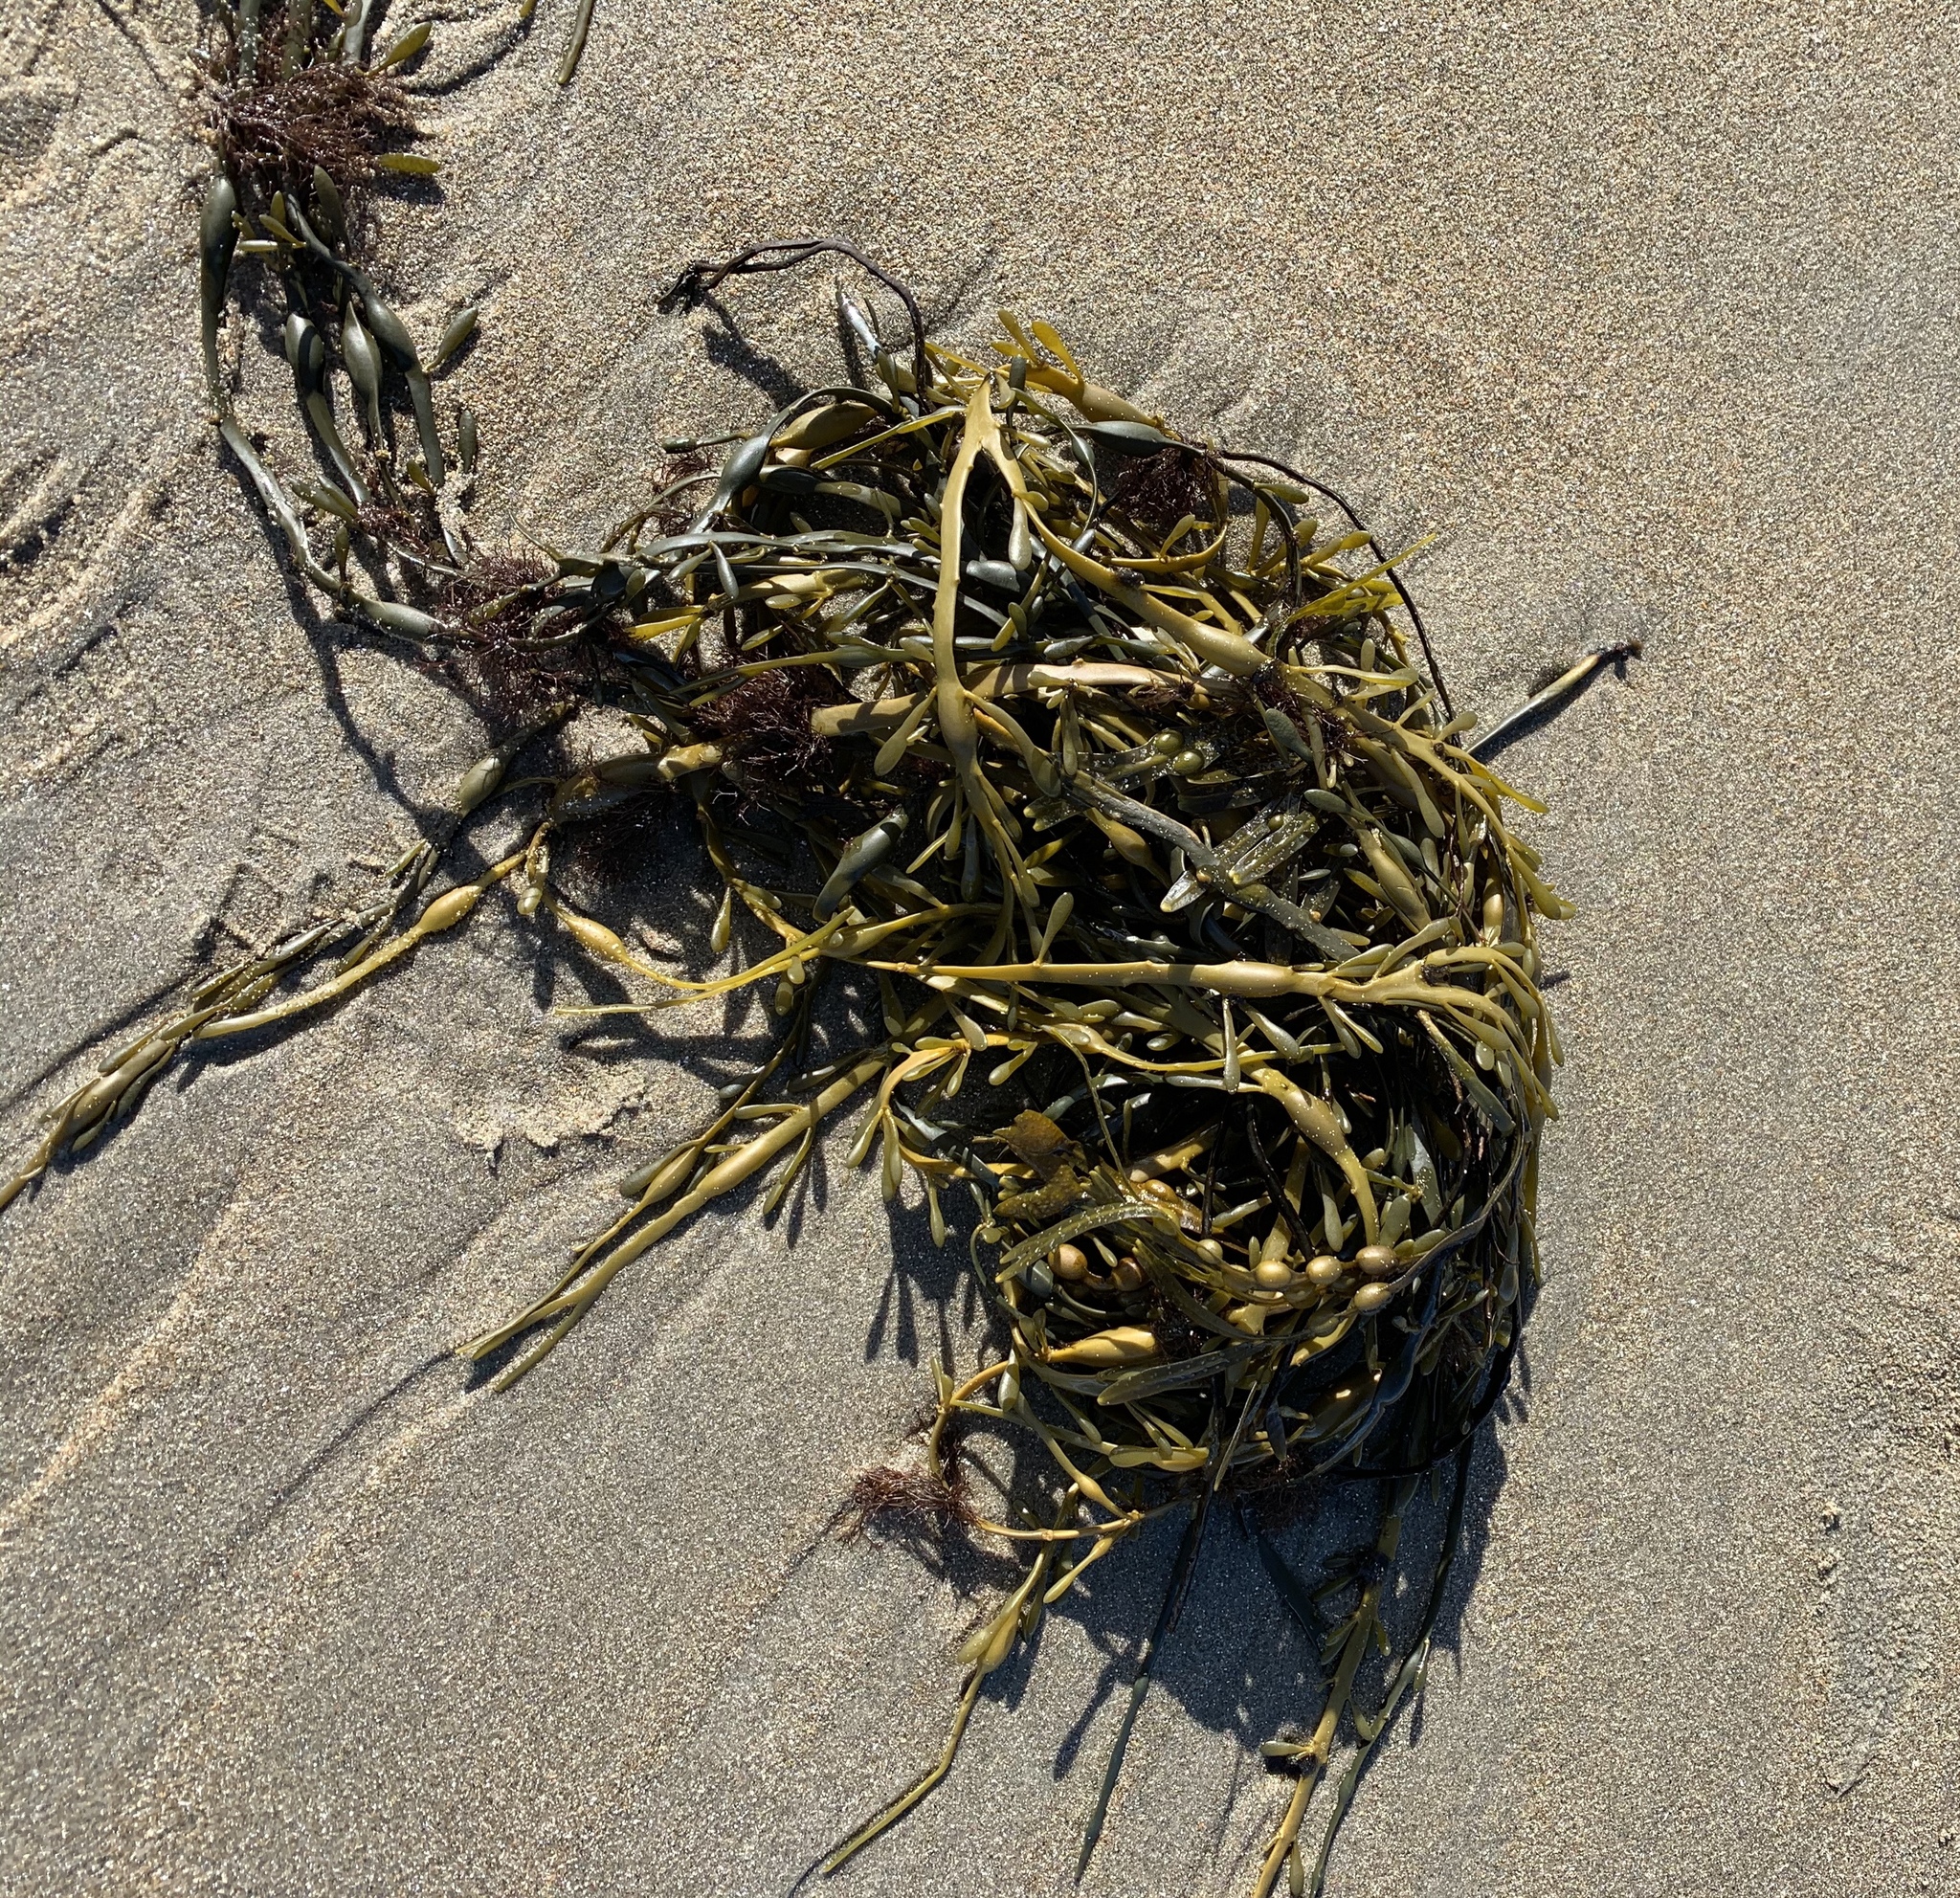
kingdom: Chromista
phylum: Ochrophyta
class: Phaeophyceae
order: Fucales
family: Fucaceae
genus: Ascophyllum
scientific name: Ascophyllum nodosum
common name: Knotted wrack
